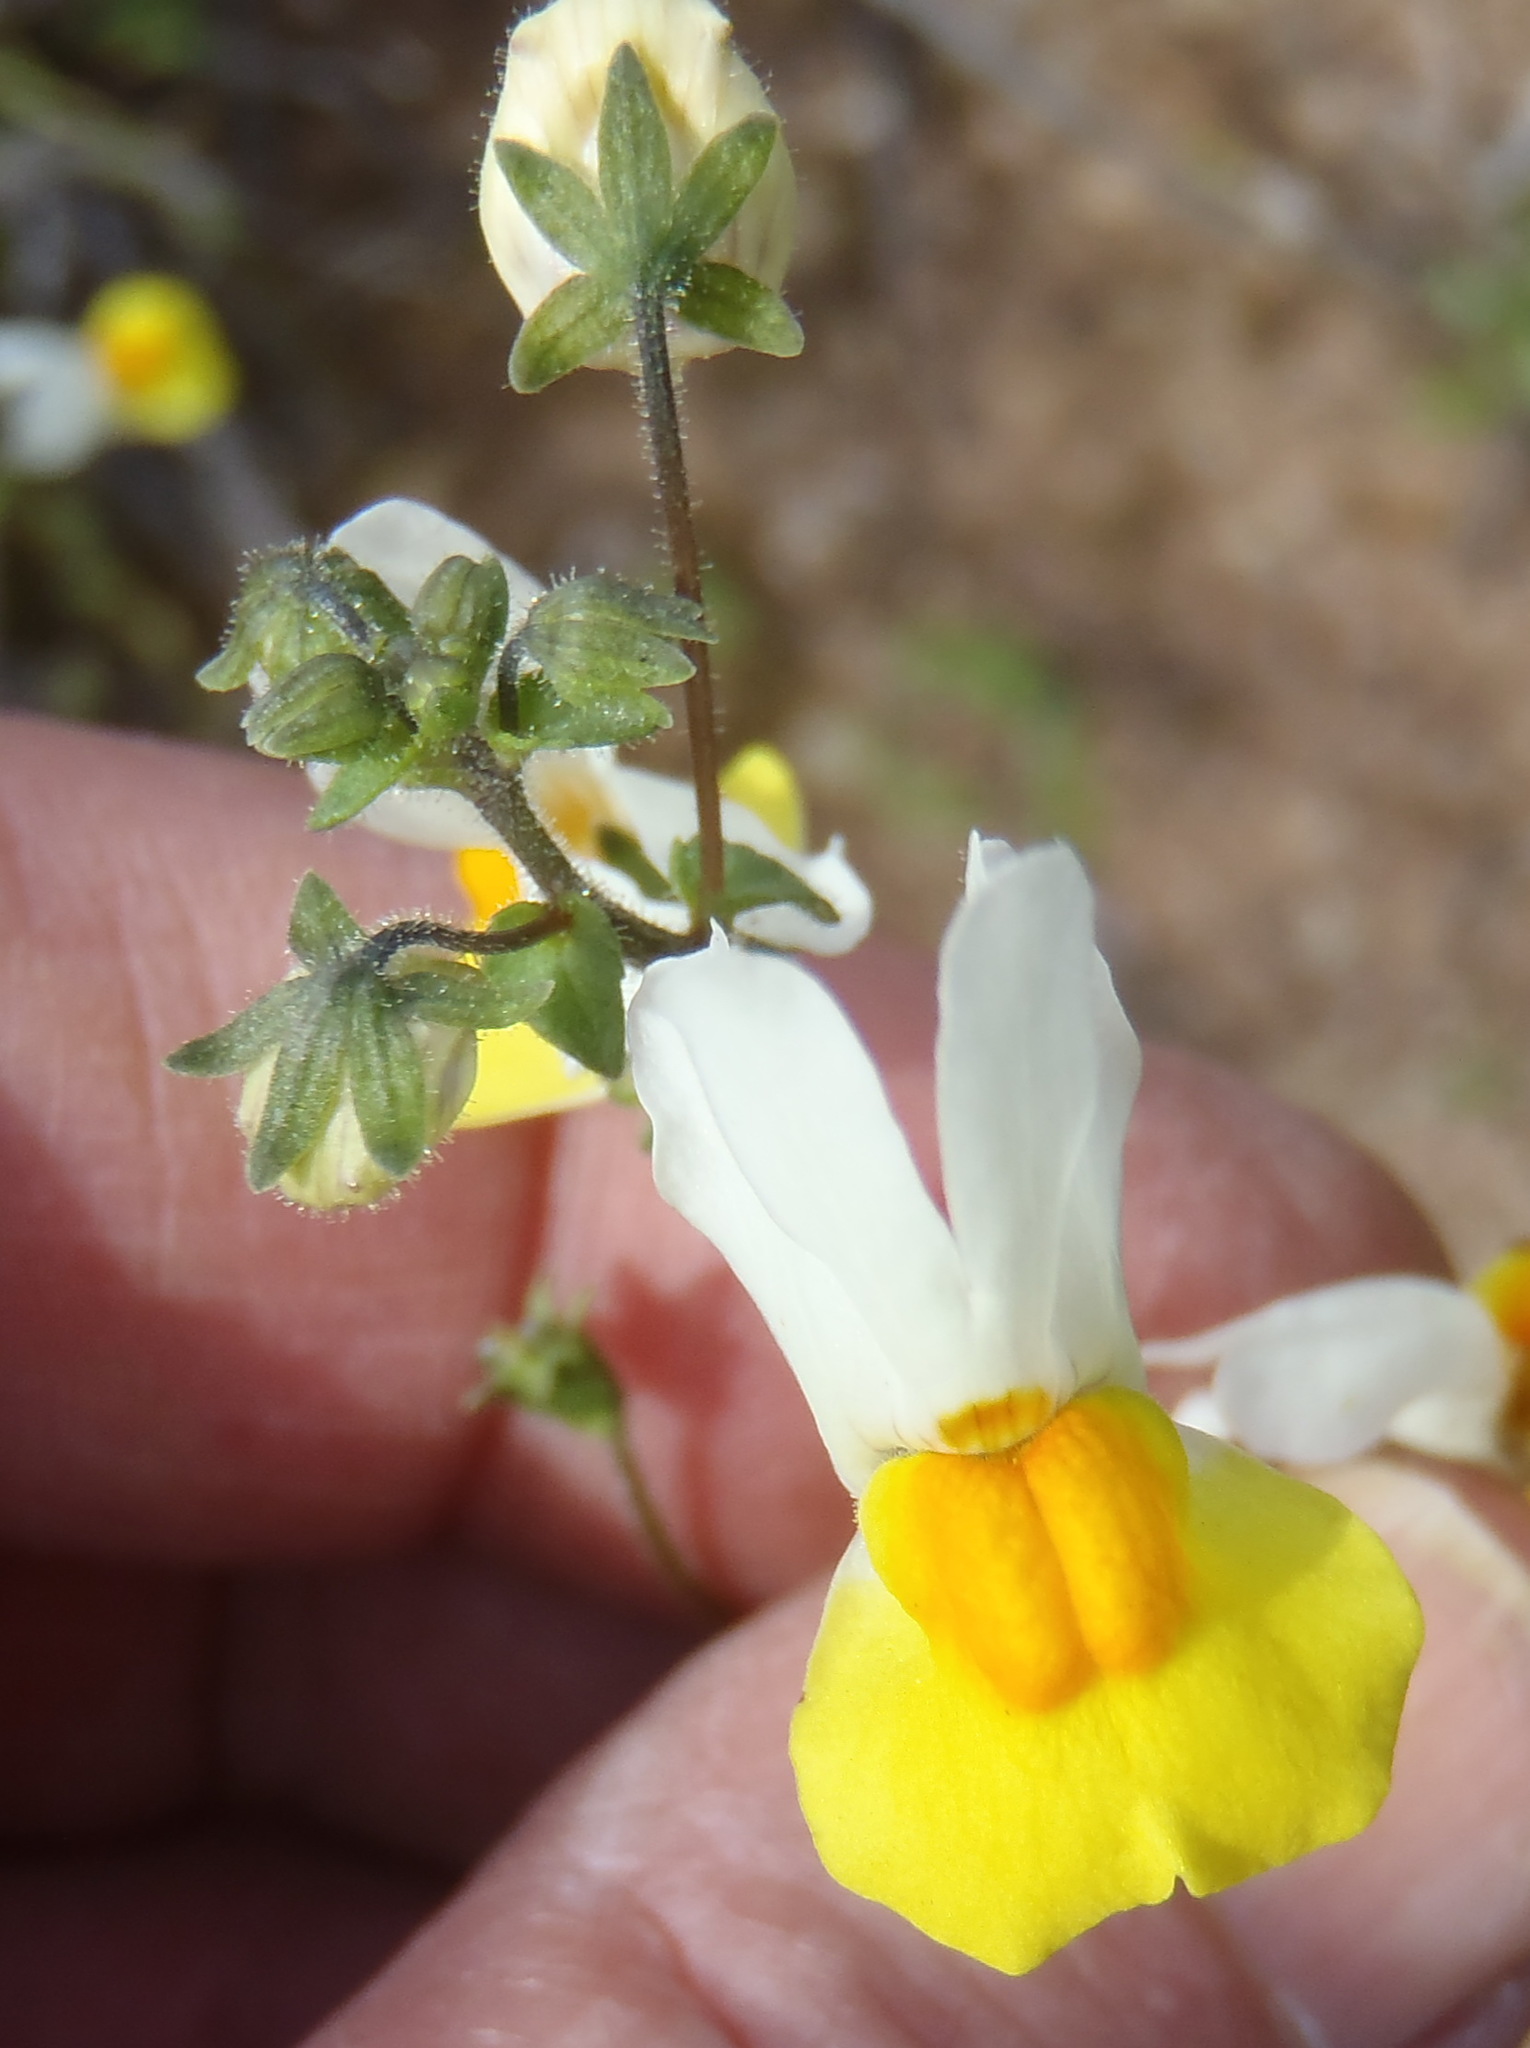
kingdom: Plantae
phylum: Tracheophyta
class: Magnoliopsida
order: Lamiales
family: Scrophulariaceae
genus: Nemesia
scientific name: Nemesia ligulata
